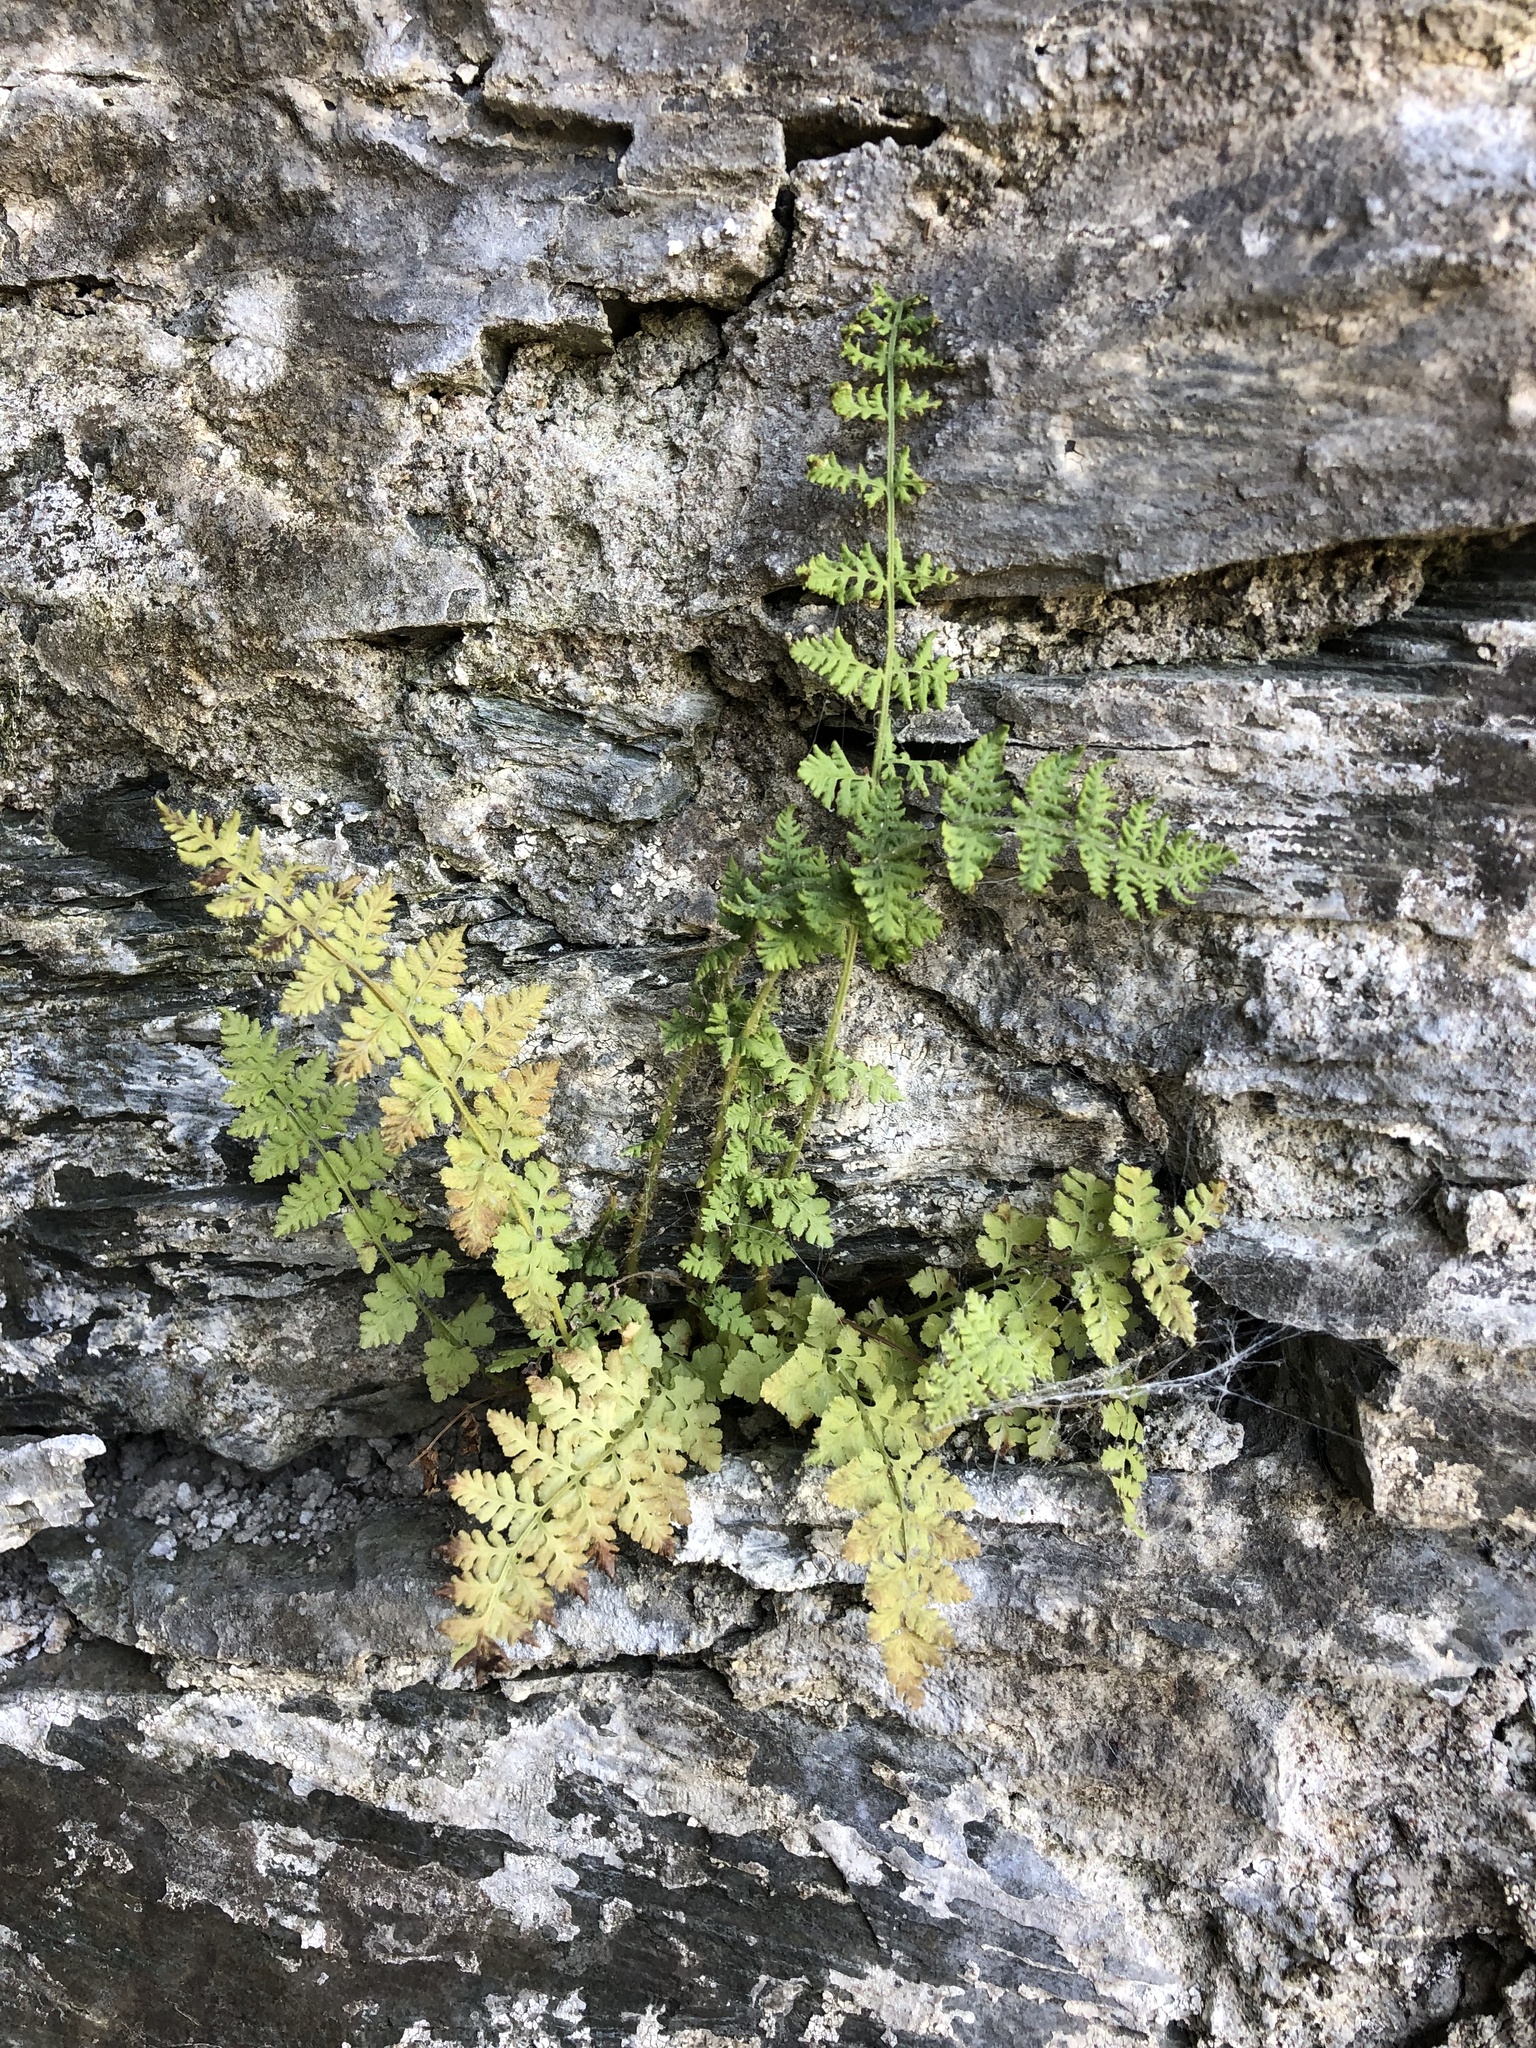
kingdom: Plantae
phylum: Tracheophyta
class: Polypodiopsida
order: Polypodiales
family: Woodsiaceae
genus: Physematium
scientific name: Physematium obtusum
